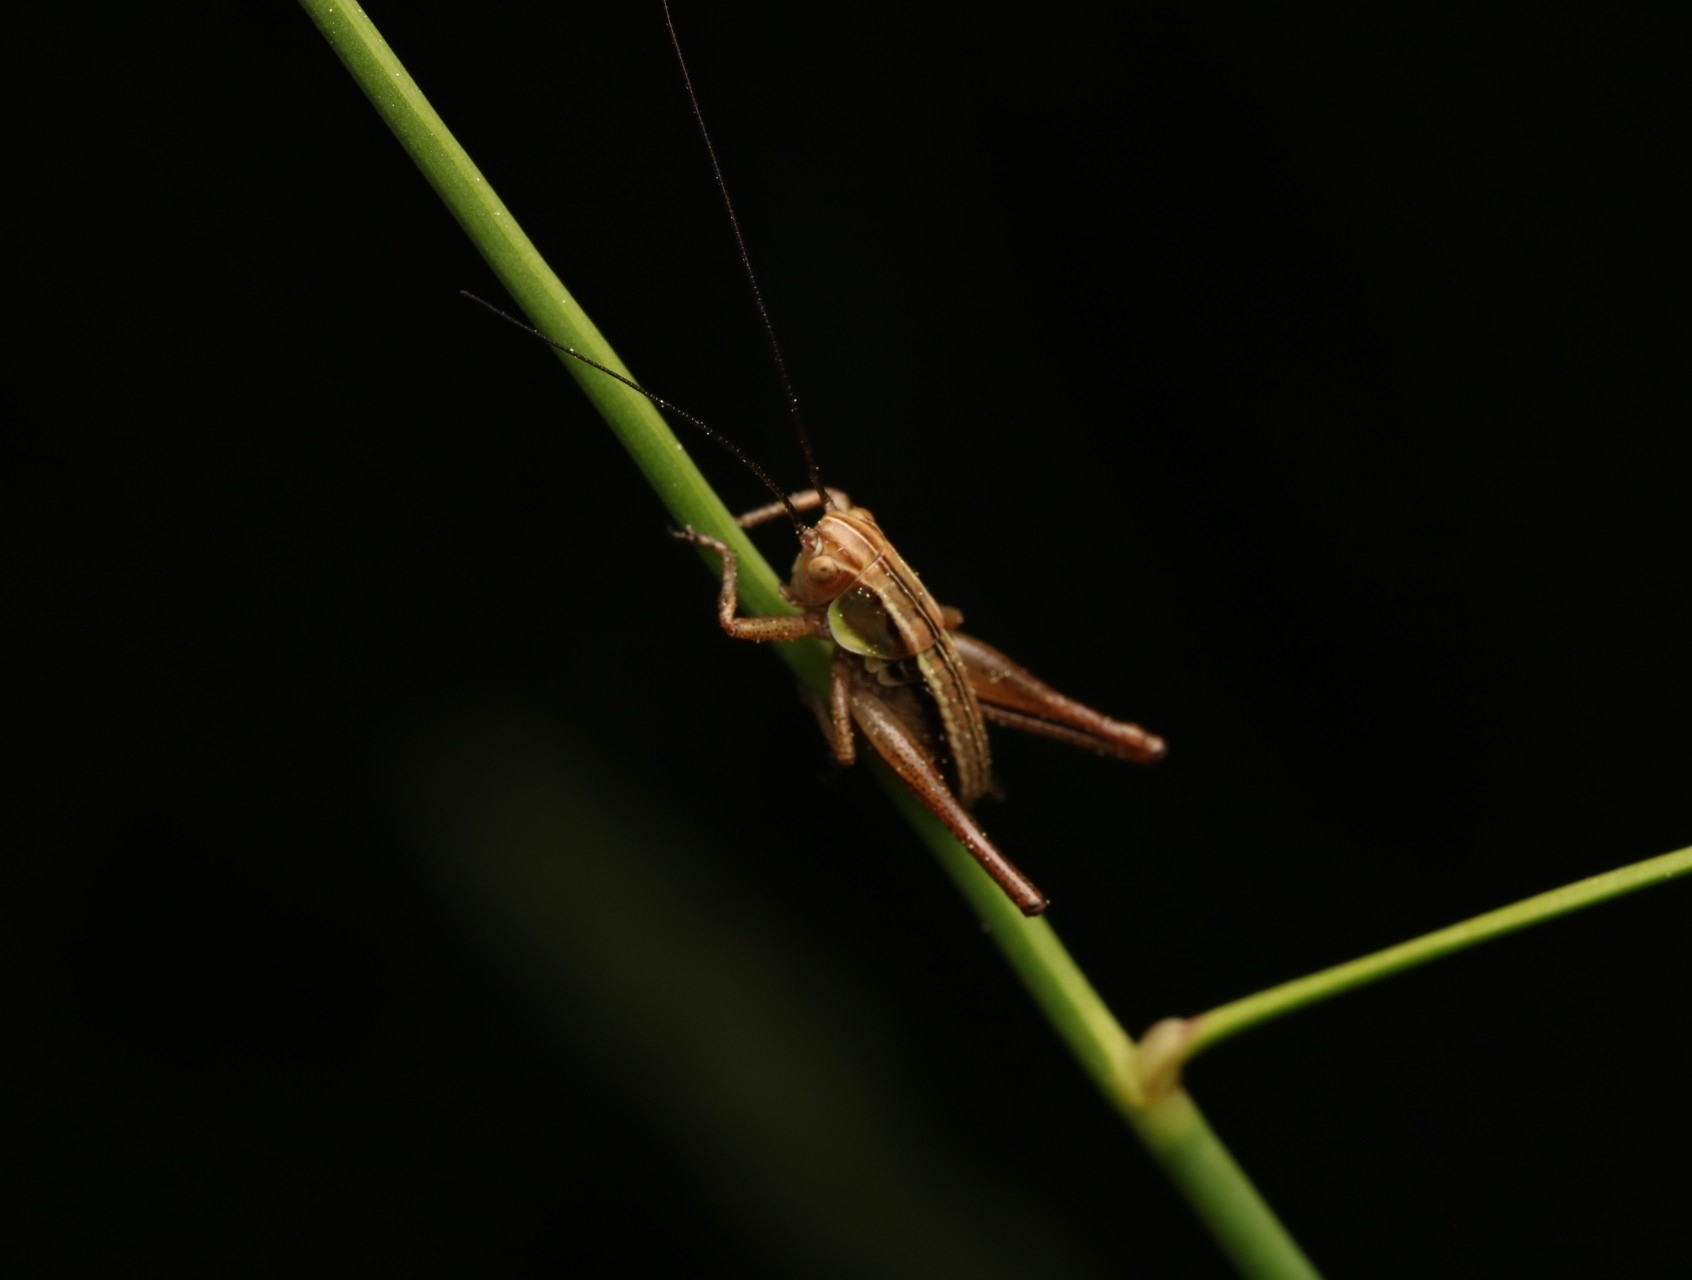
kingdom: Animalia
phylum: Arthropoda
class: Insecta
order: Orthoptera
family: Tettigoniidae
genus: Roeseliana
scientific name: Roeseliana roeselii
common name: Roesel's bush cricket
